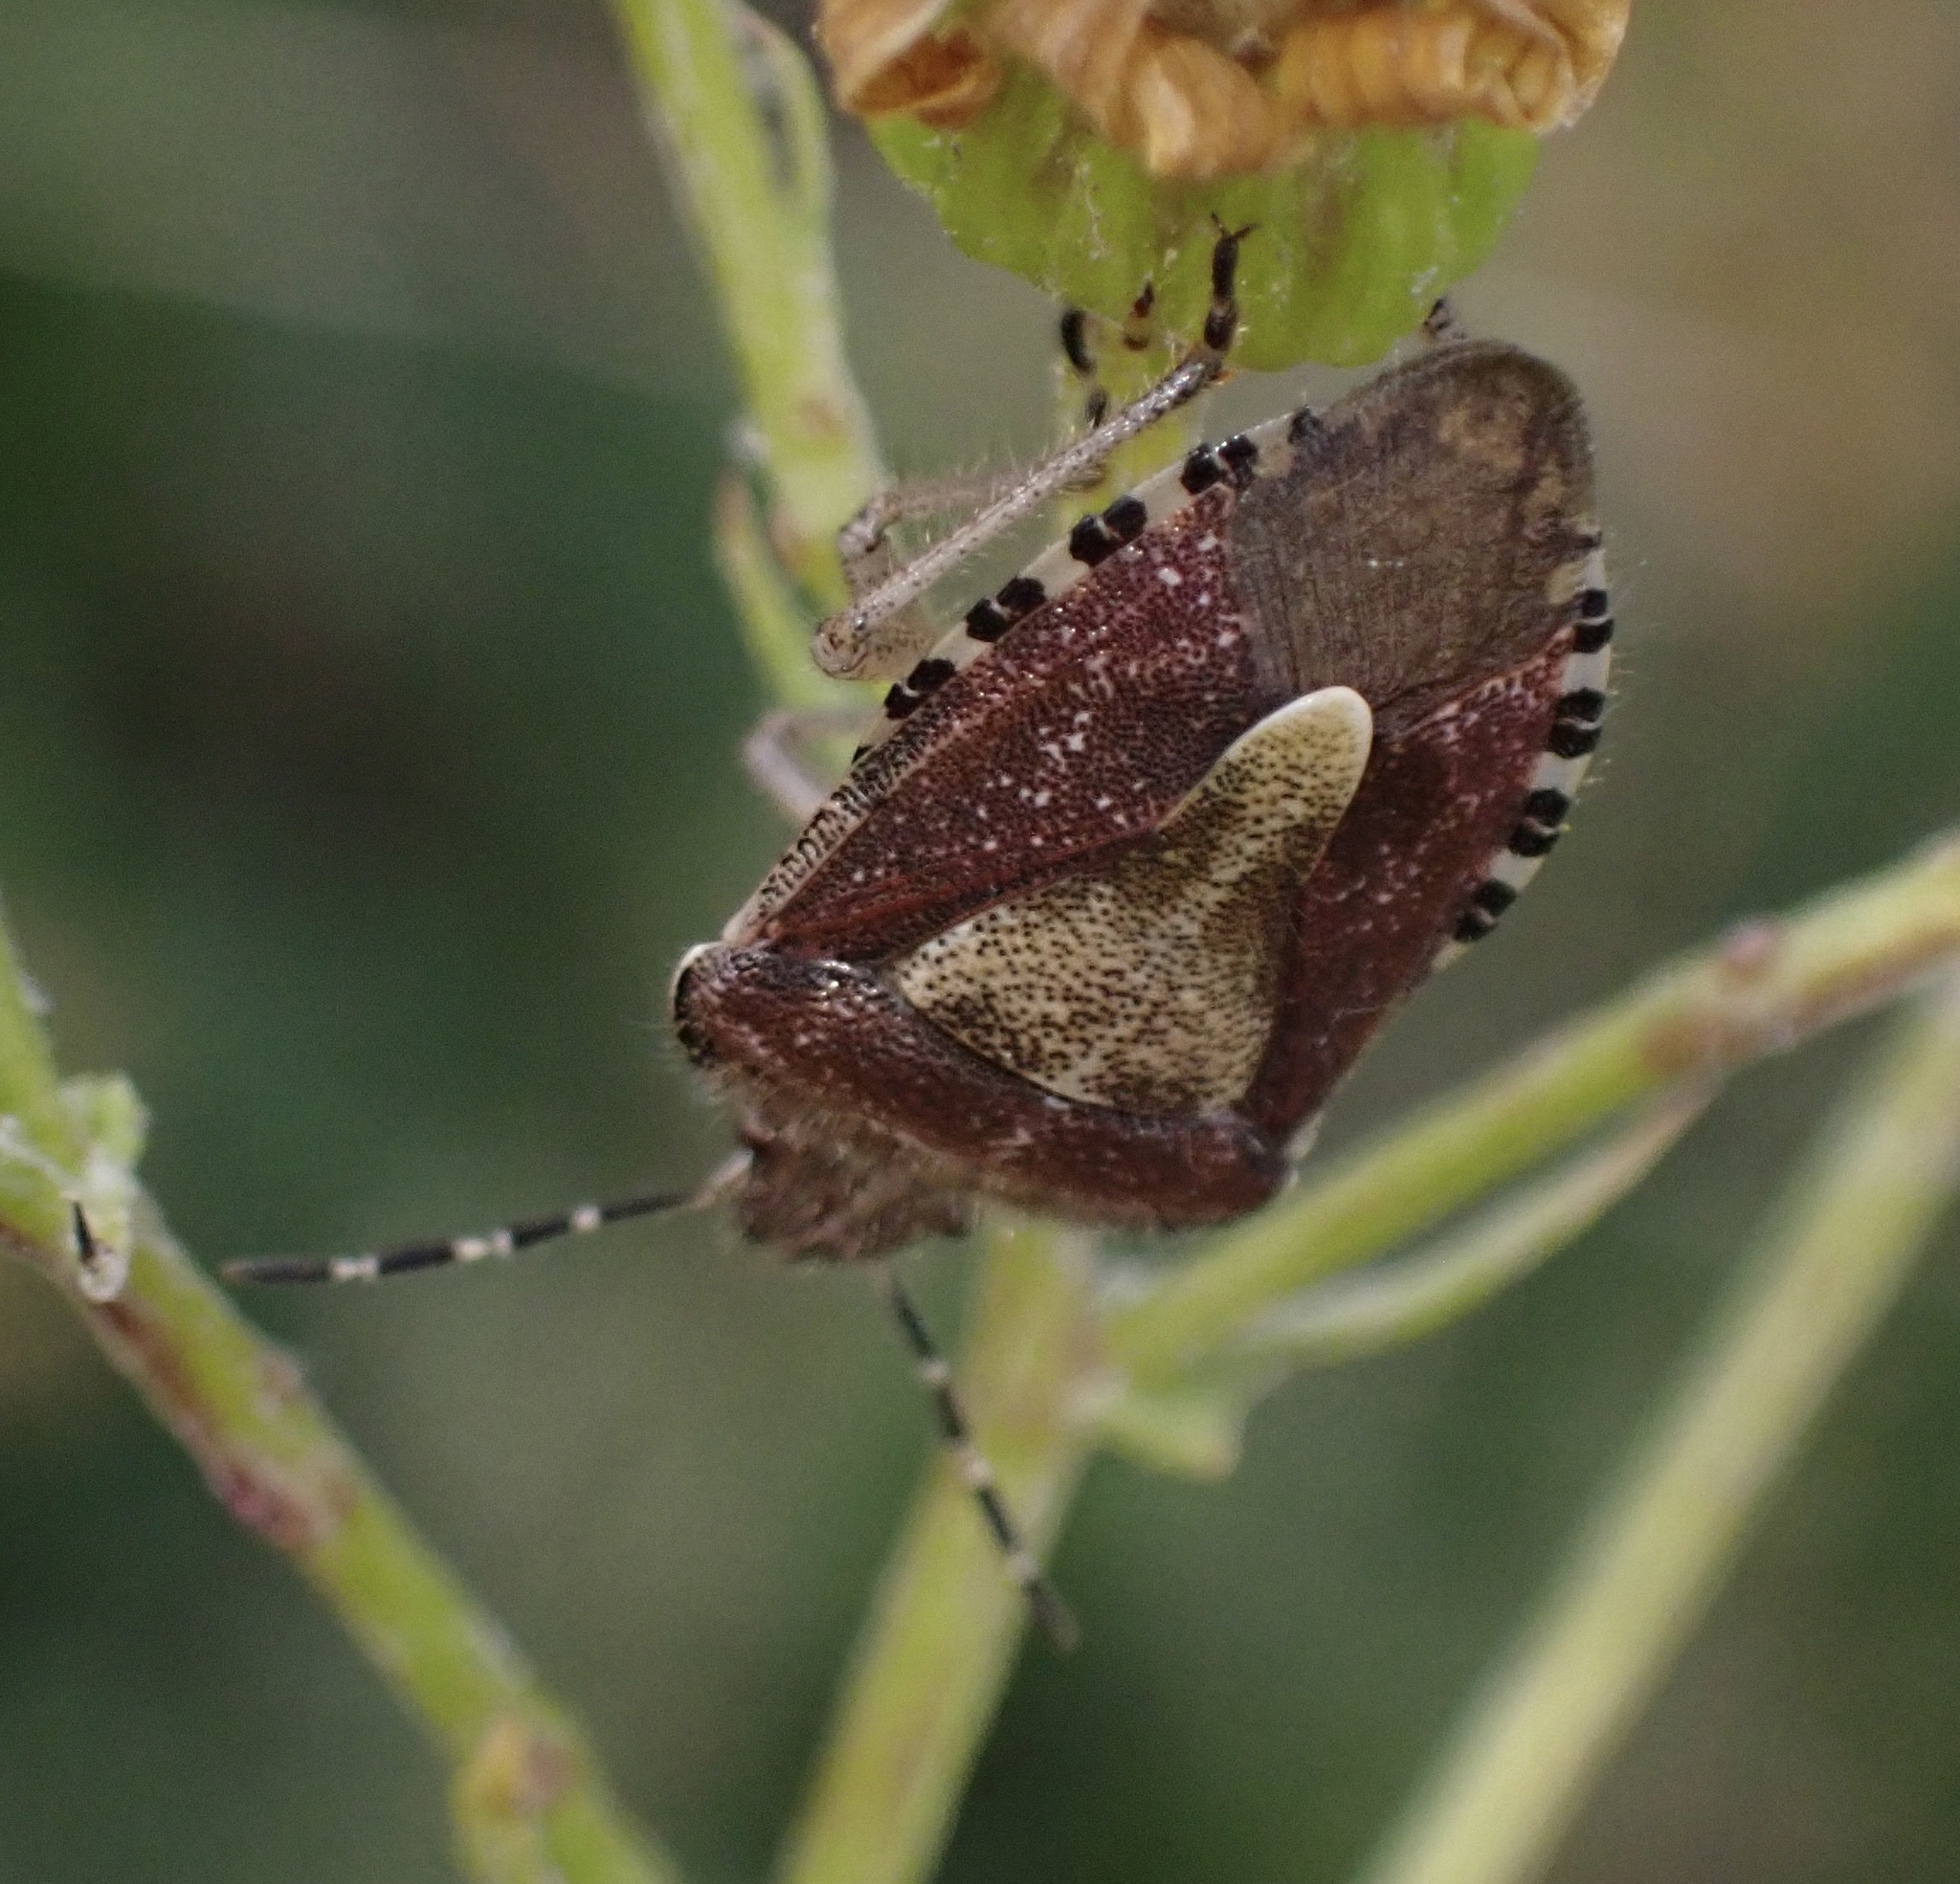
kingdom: Animalia
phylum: Arthropoda
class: Insecta
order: Hemiptera
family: Pentatomidae
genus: Dolycoris
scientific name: Dolycoris baccarum
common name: Sloe bug
